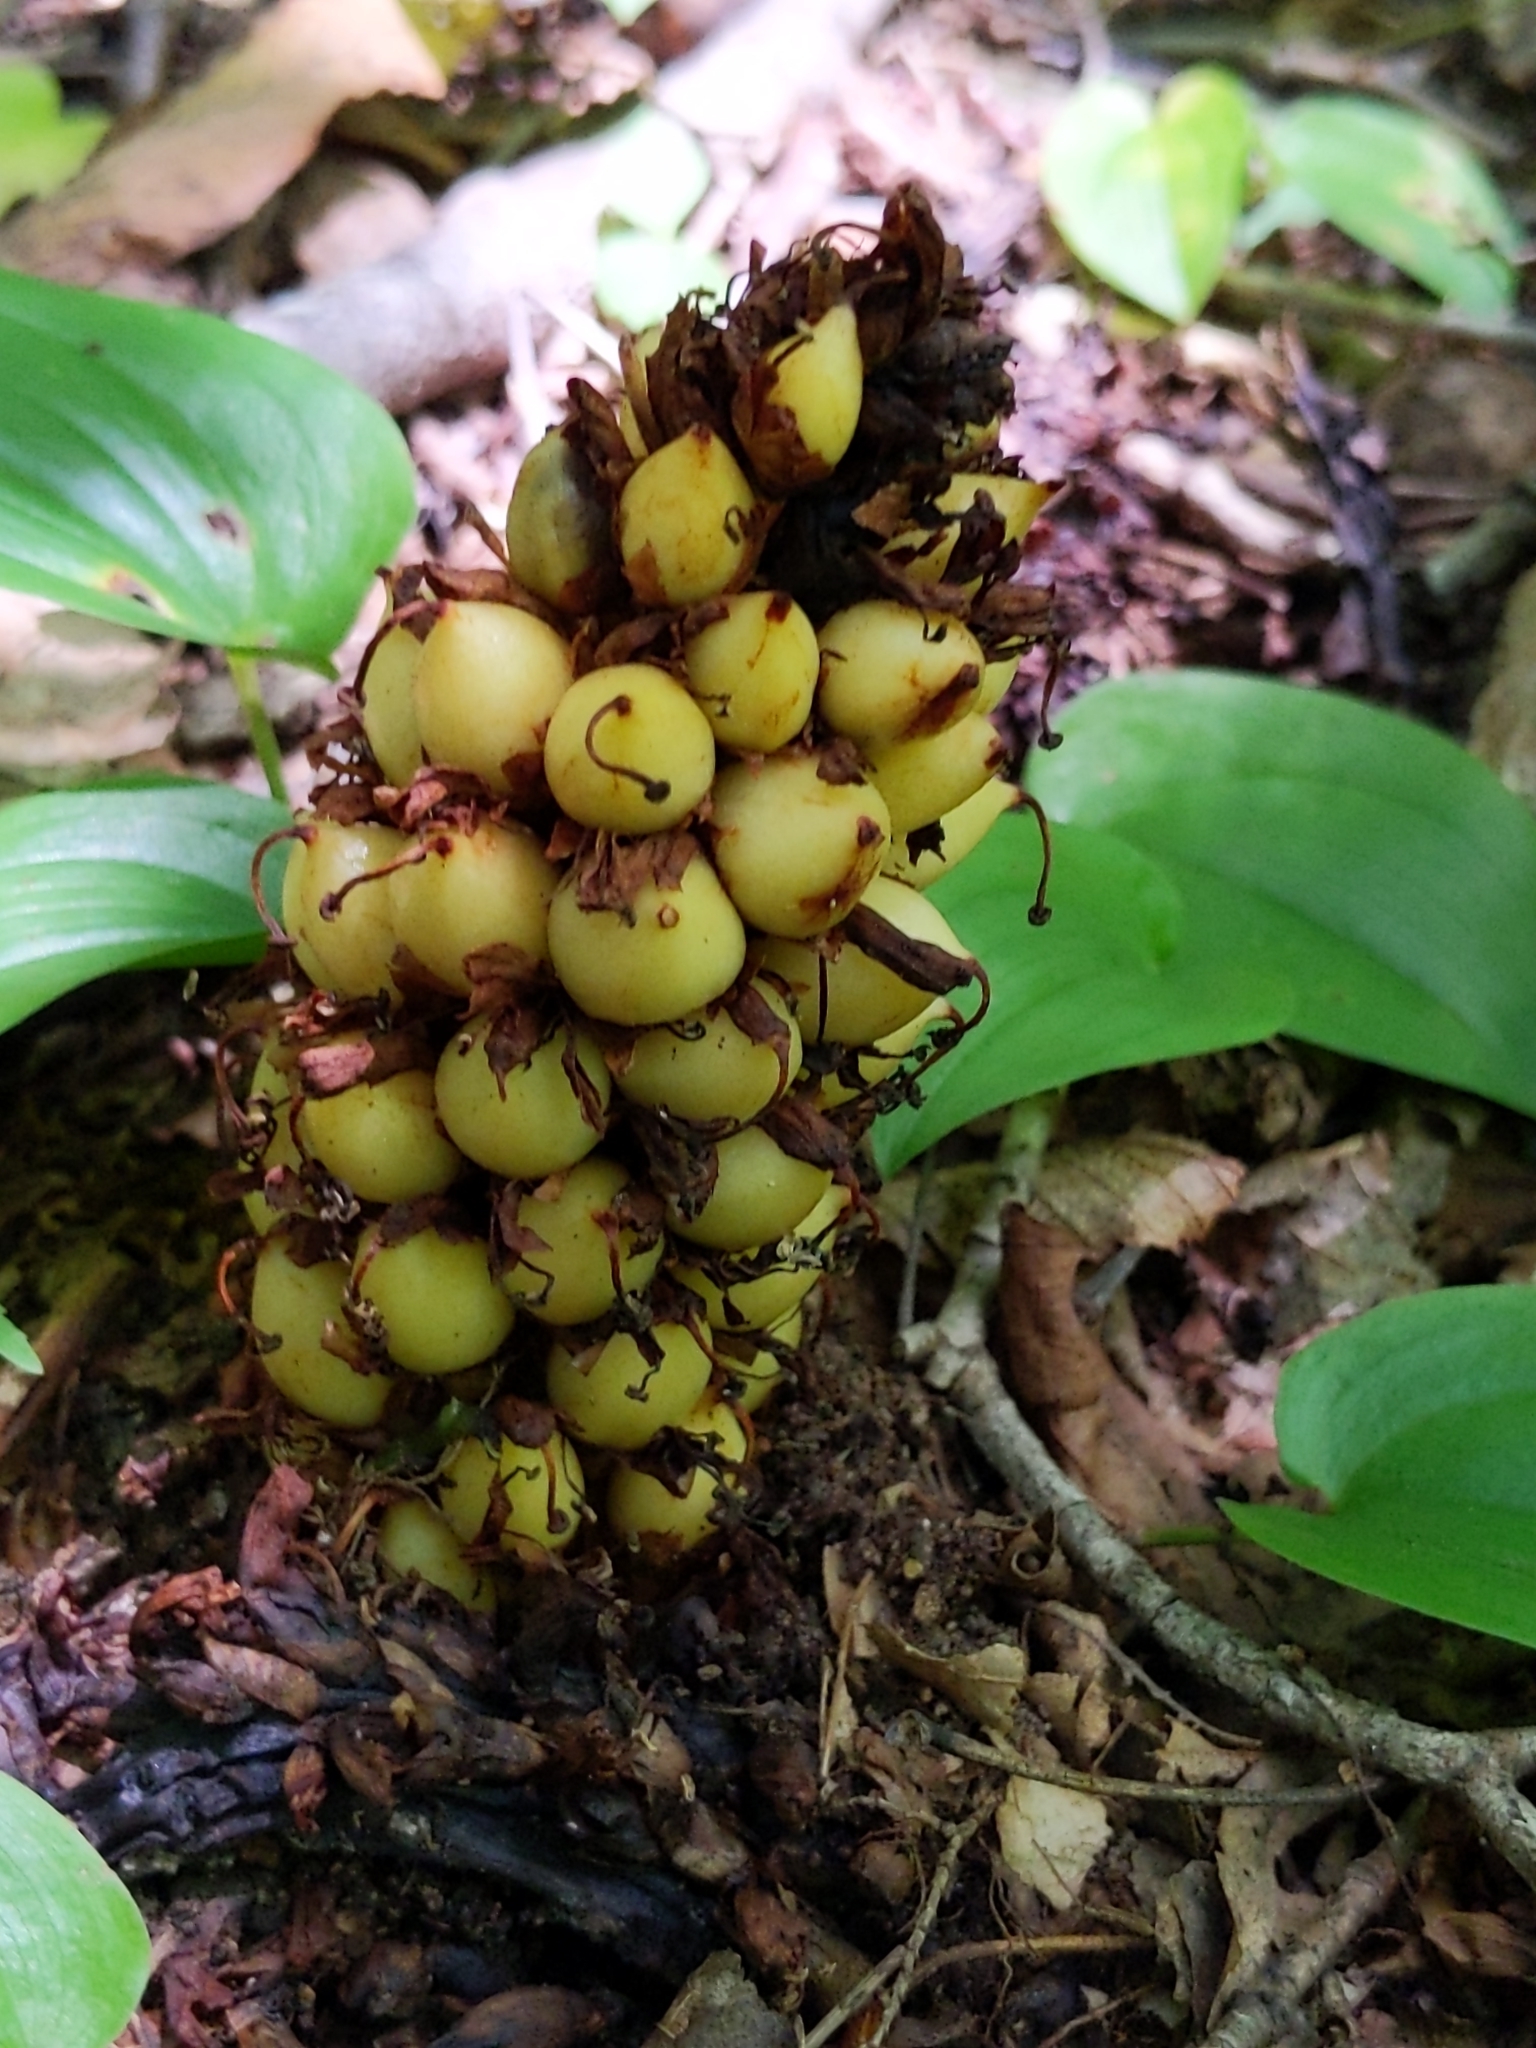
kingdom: Plantae
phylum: Tracheophyta
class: Magnoliopsida
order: Lamiales
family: Orobanchaceae
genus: Conopholis
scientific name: Conopholis americana
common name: American cancer-root
